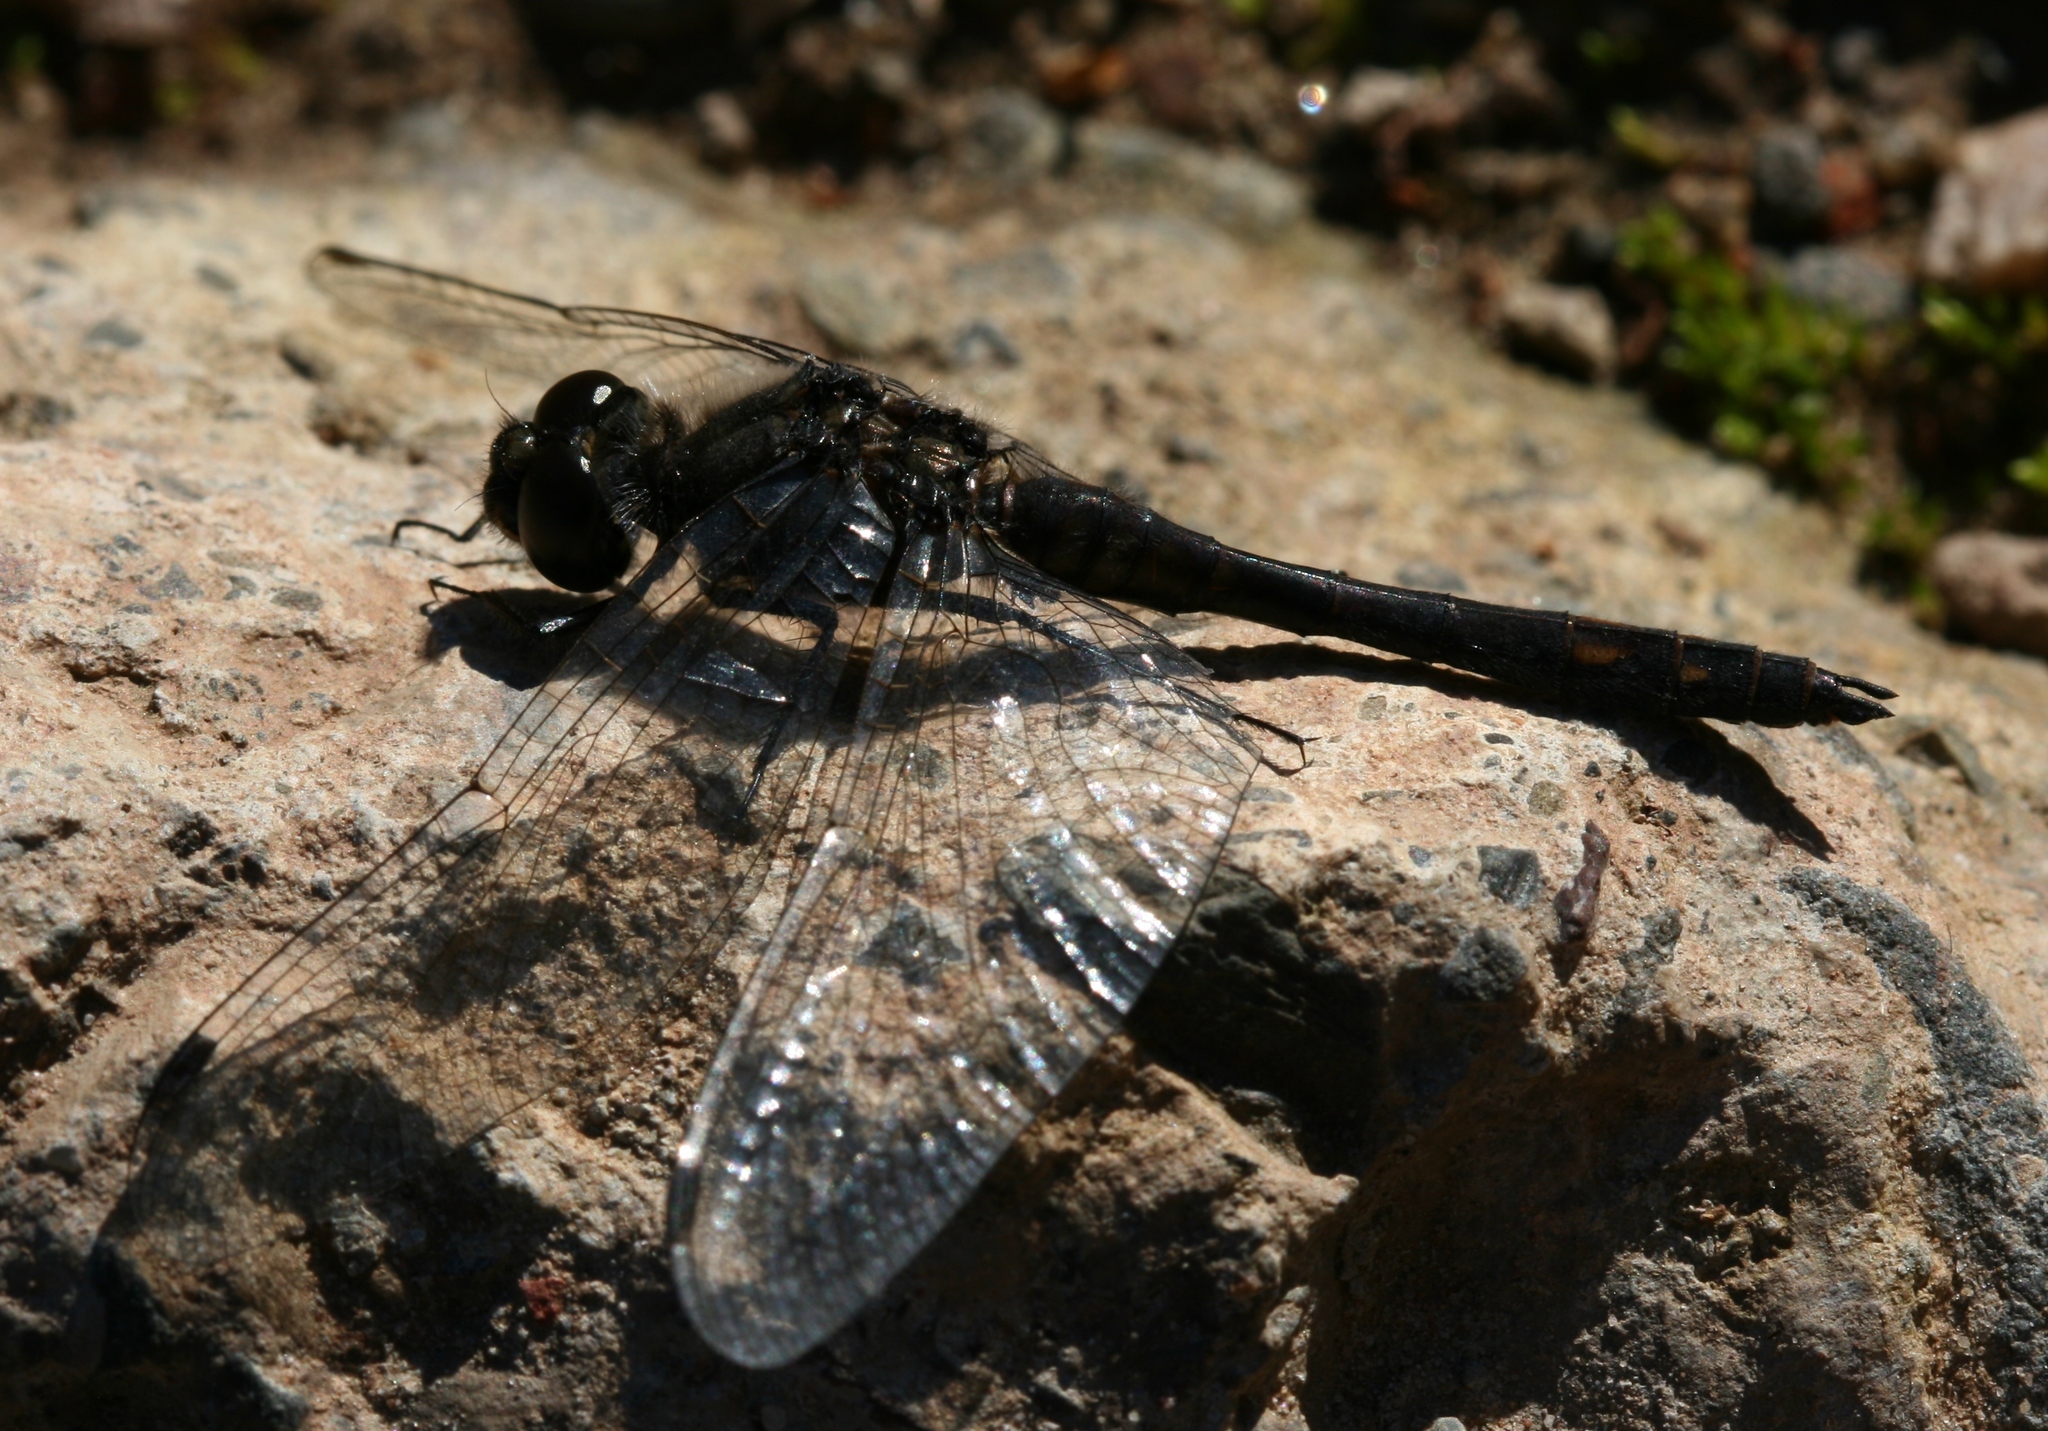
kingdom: Animalia
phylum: Arthropoda
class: Insecta
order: Odonata
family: Libellulidae
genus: Sympetrum
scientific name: Sympetrum danae
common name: Black darter
